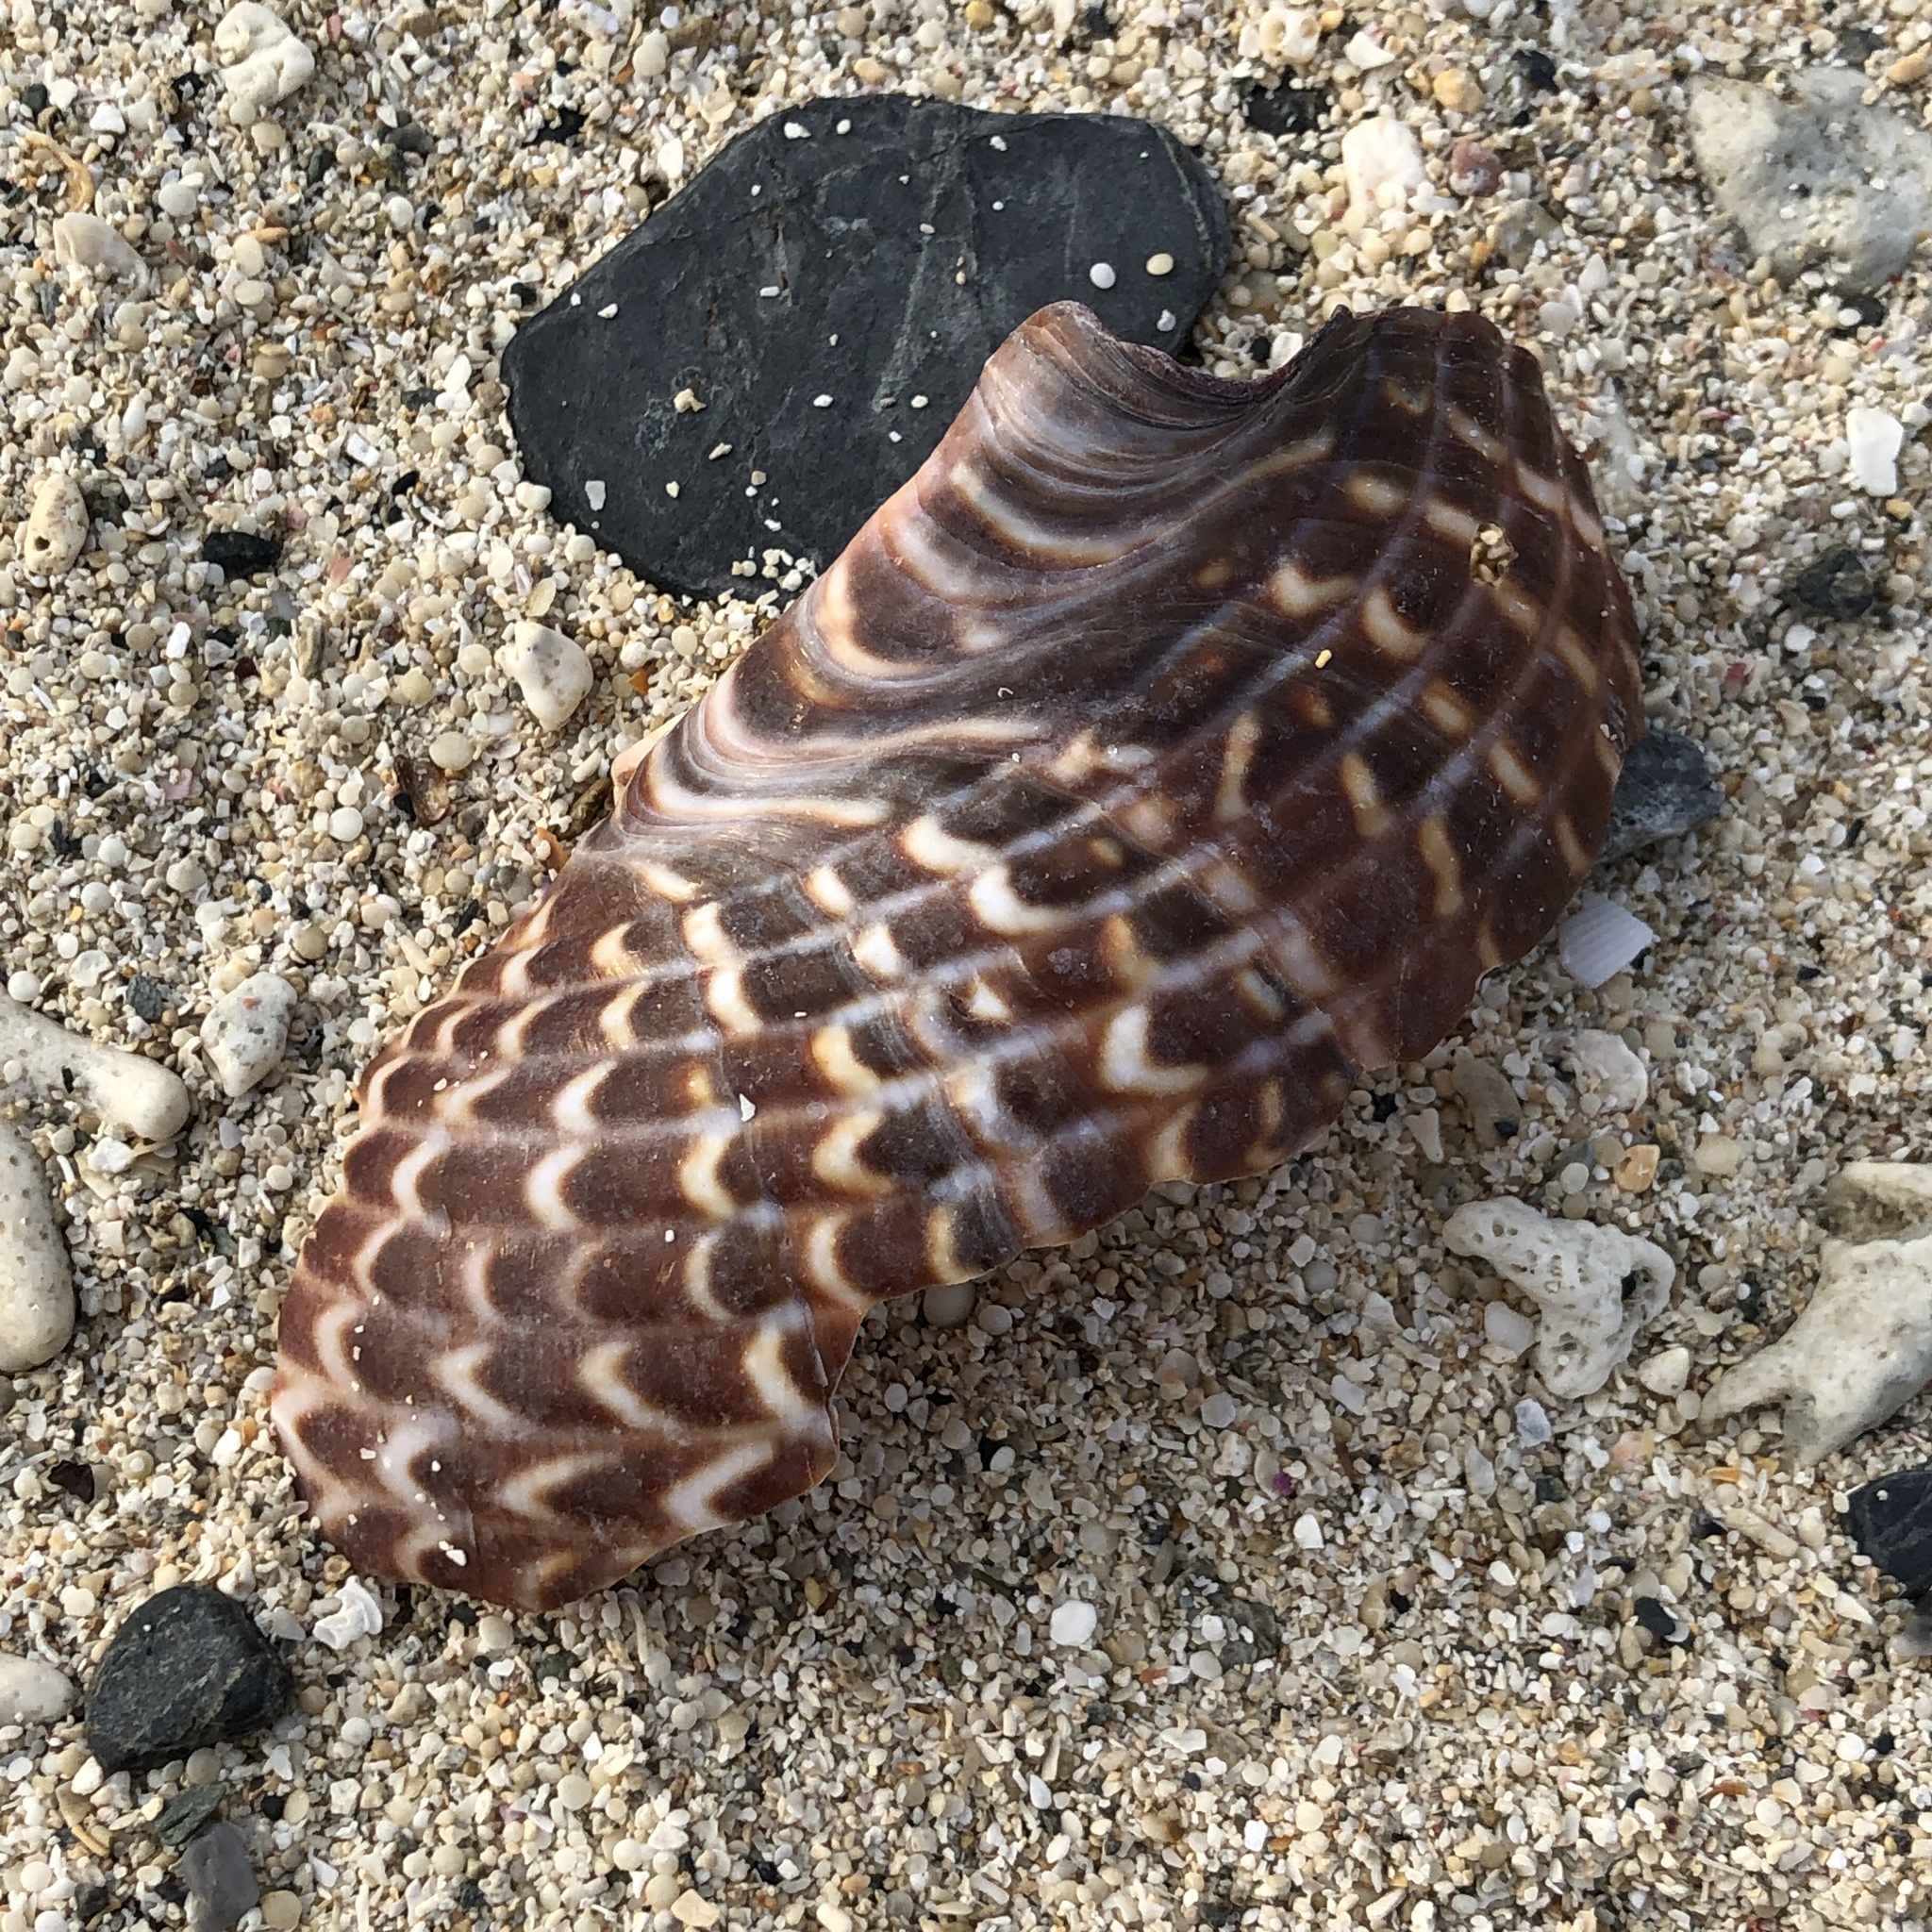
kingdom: Animalia
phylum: Mollusca
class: Gastropoda
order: Littorinimorpha
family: Tonnidae
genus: Tonna
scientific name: Tonna perdix
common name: Pacific partridge tun
